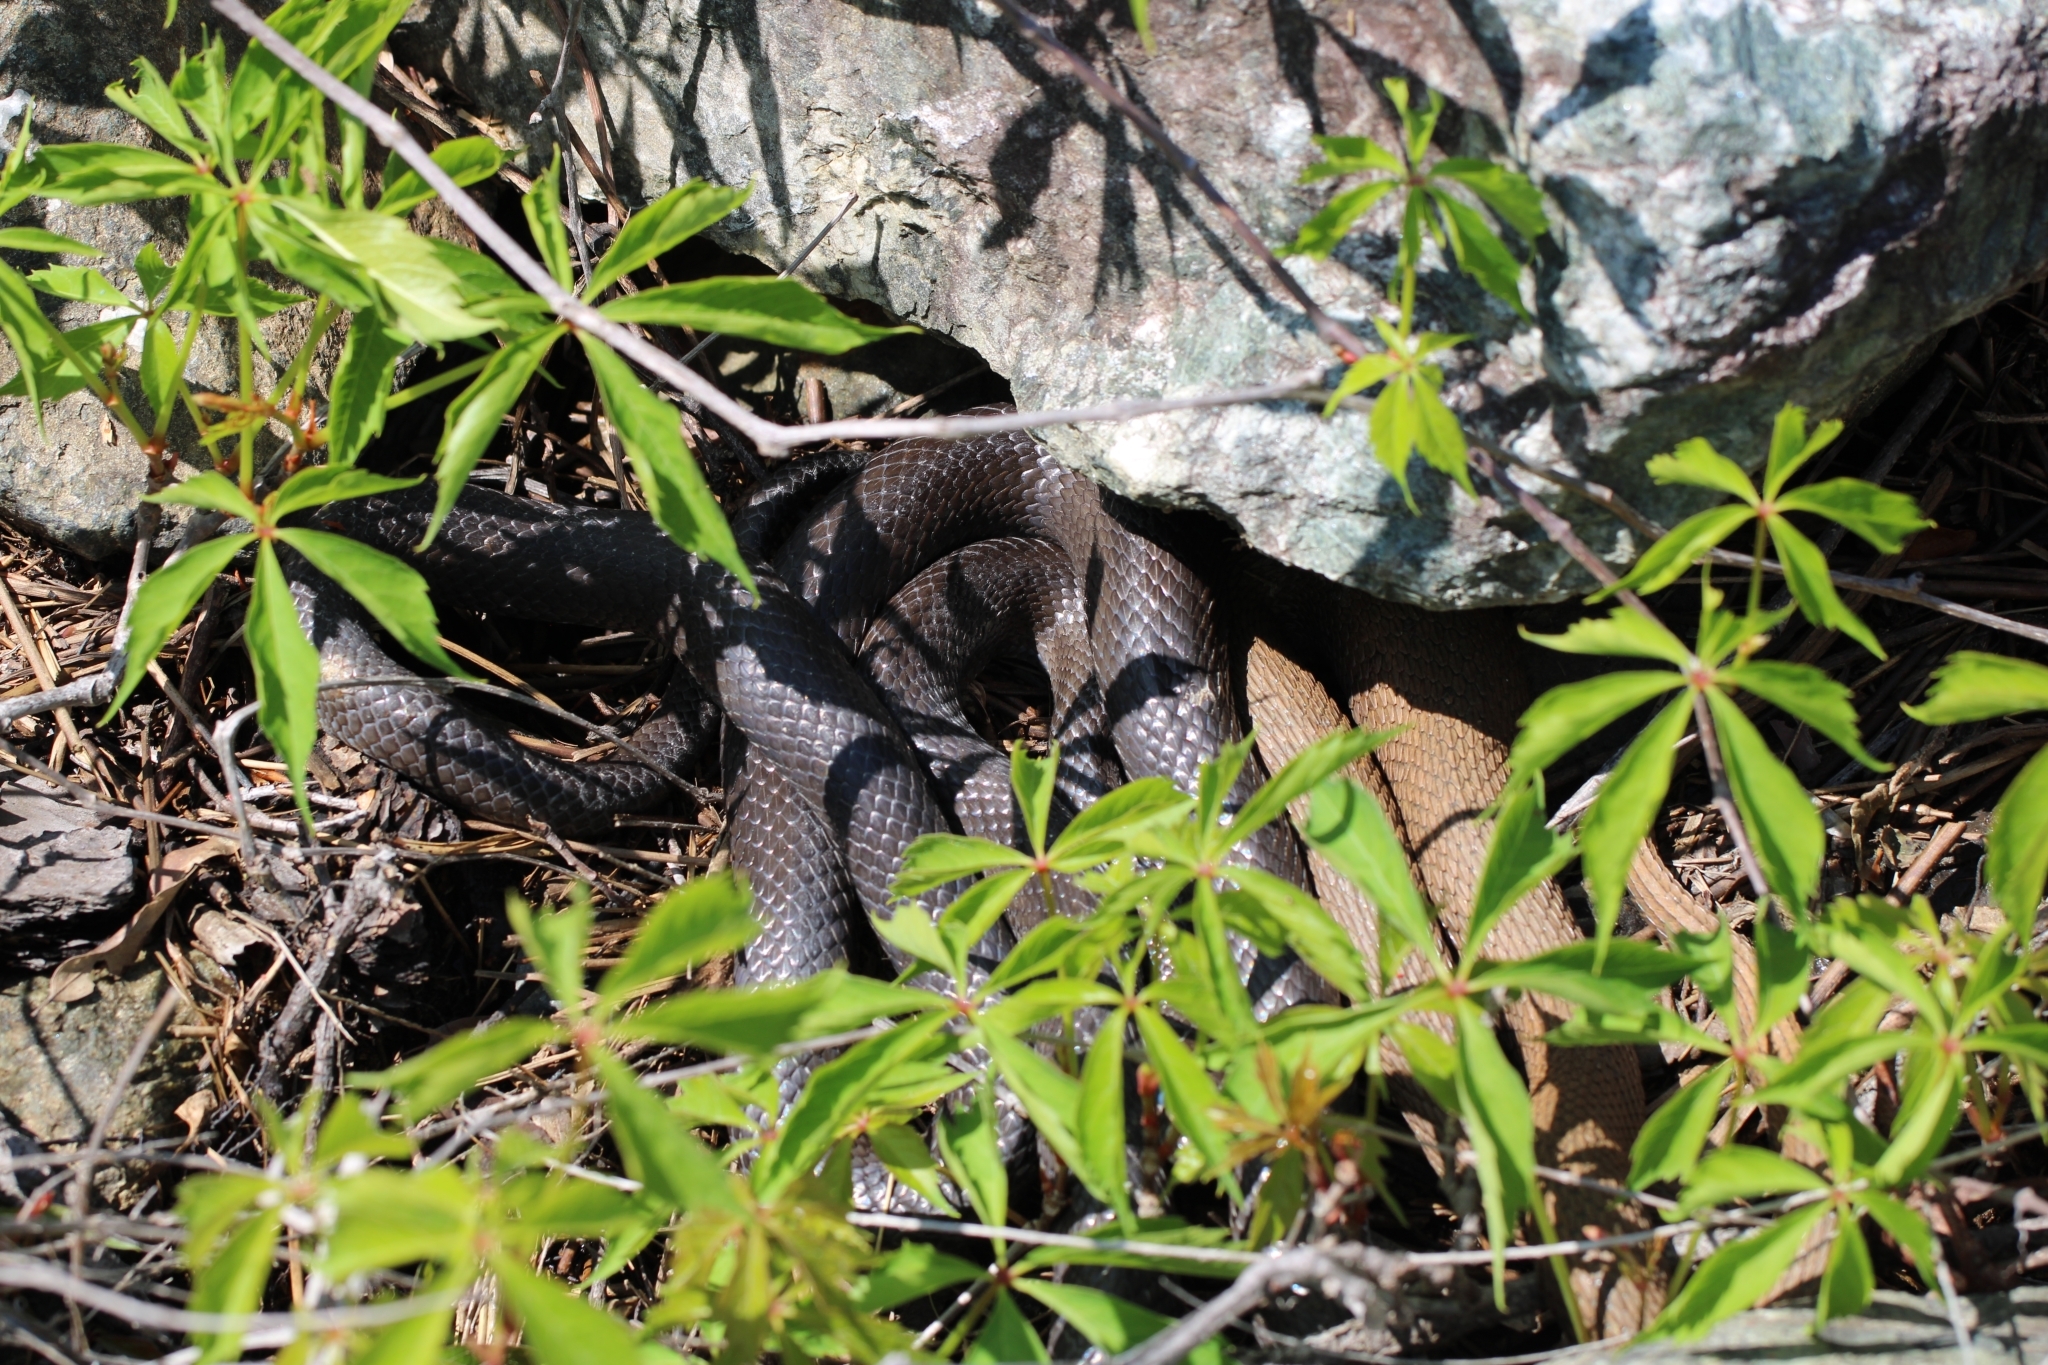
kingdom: Animalia
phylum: Chordata
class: Squamata
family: Colubridae
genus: Nerodia
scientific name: Nerodia sipedon
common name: Northern water snake
